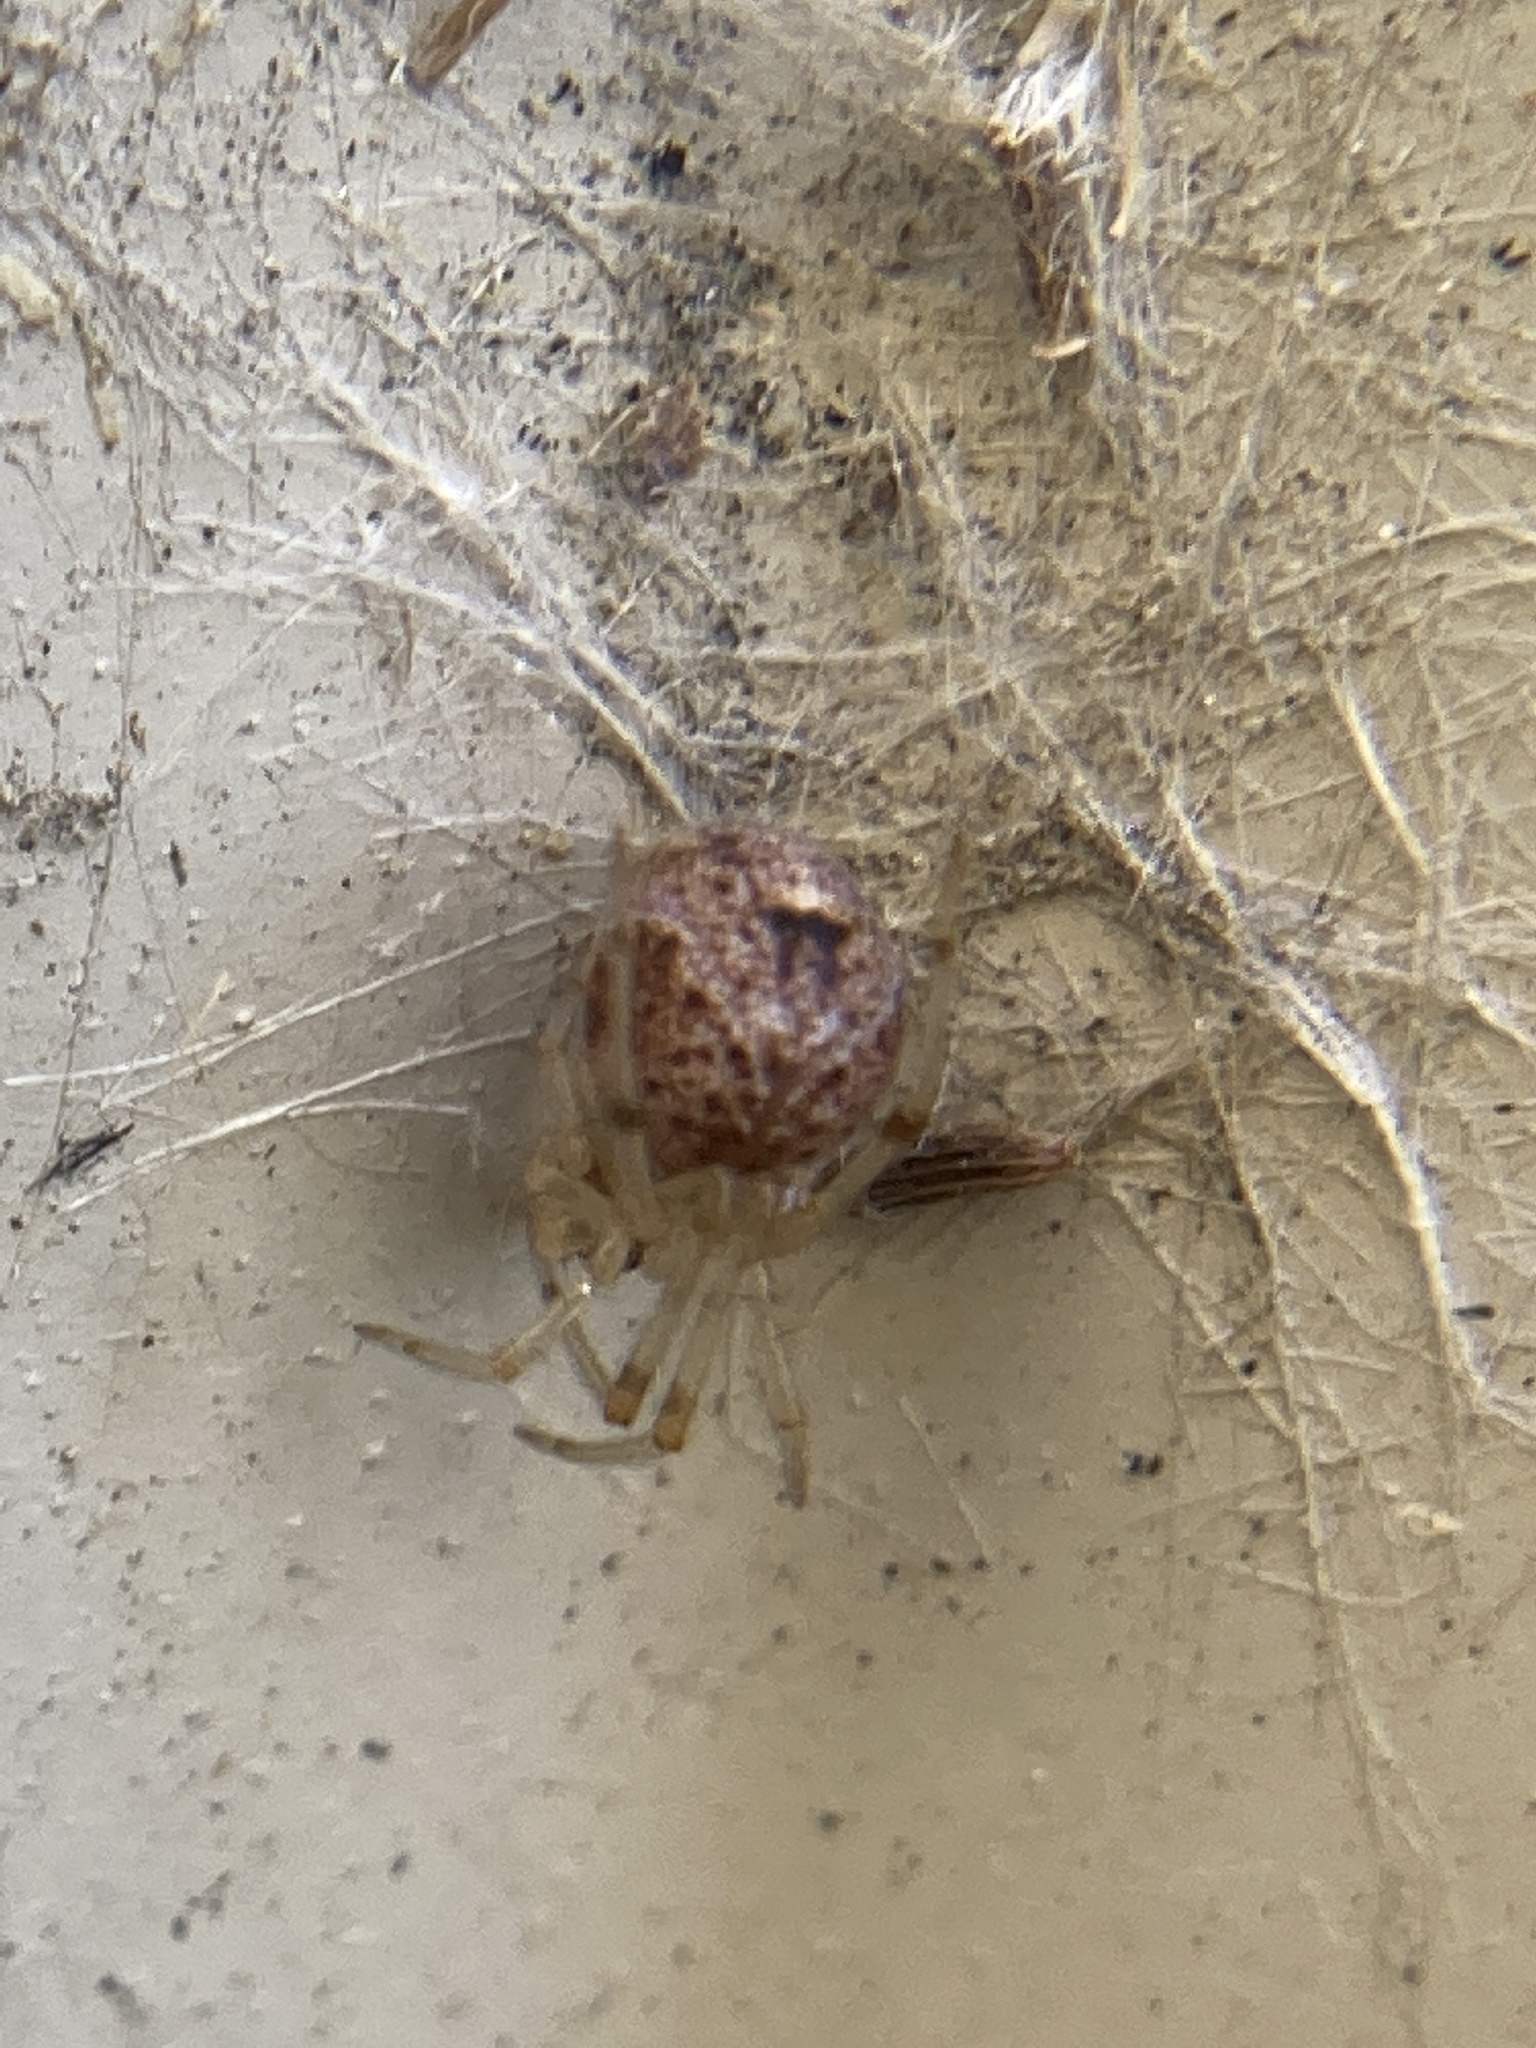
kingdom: Animalia
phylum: Arthropoda
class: Arachnida
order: Araneae
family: Theridiidae
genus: Parasteatoda
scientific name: Parasteatoda tepidariorum
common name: Common house spider
